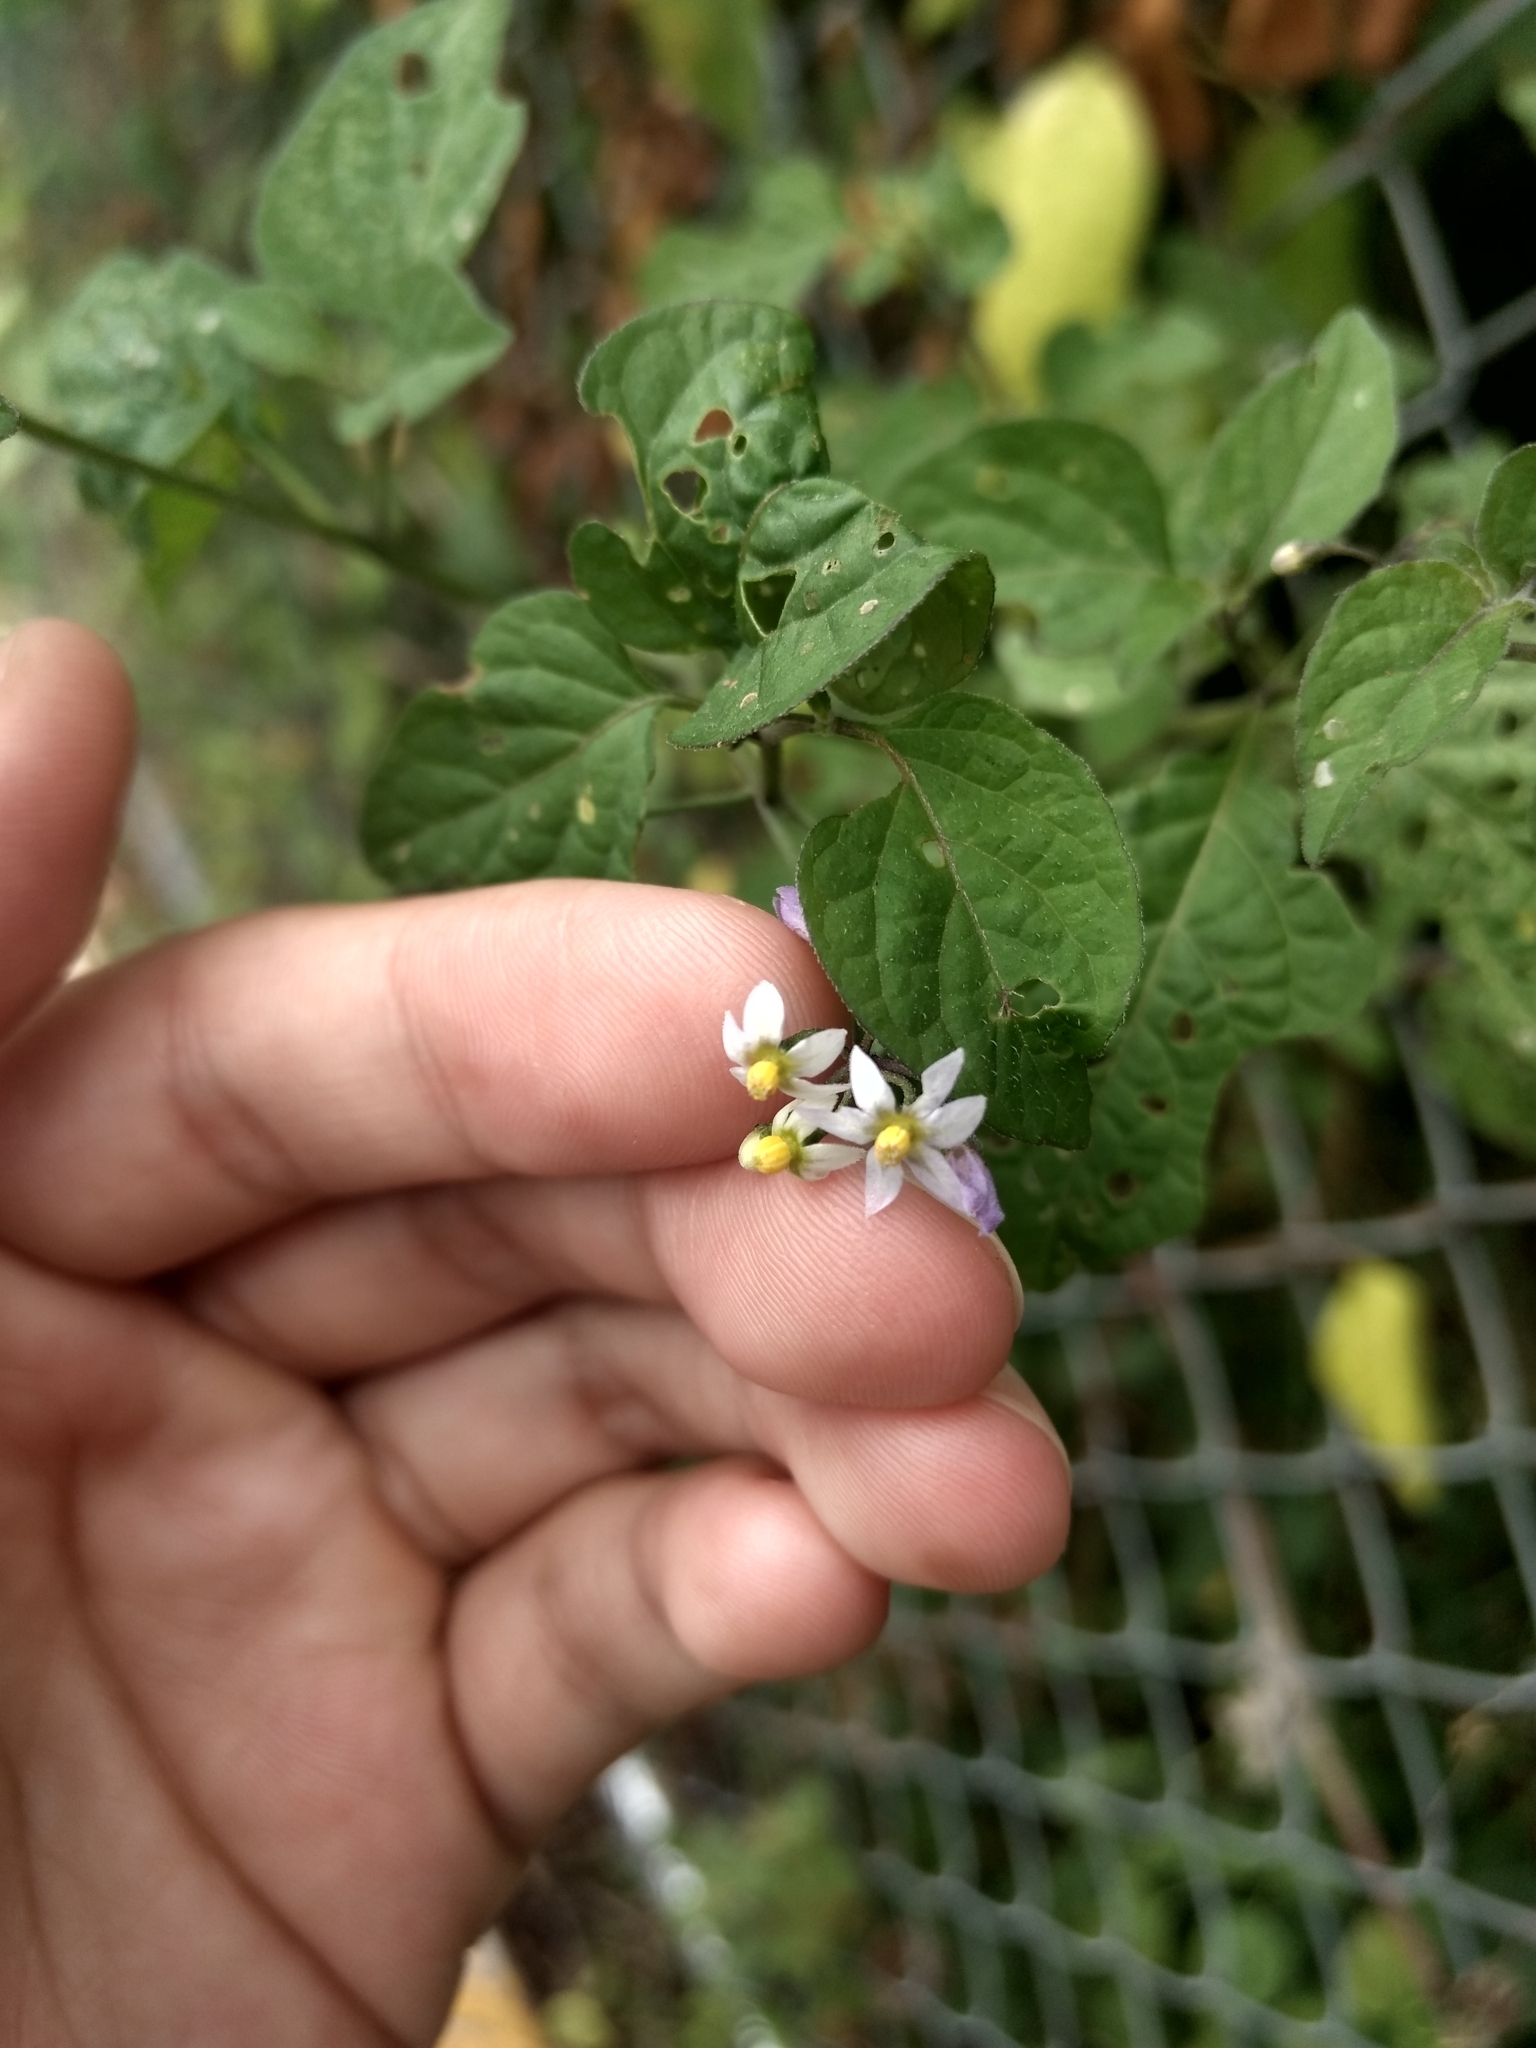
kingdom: Plantae
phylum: Tracheophyta
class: Magnoliopsida
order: Solanales
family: Solanaceae
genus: Solanum
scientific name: Solanum americanum
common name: American black nightshade
